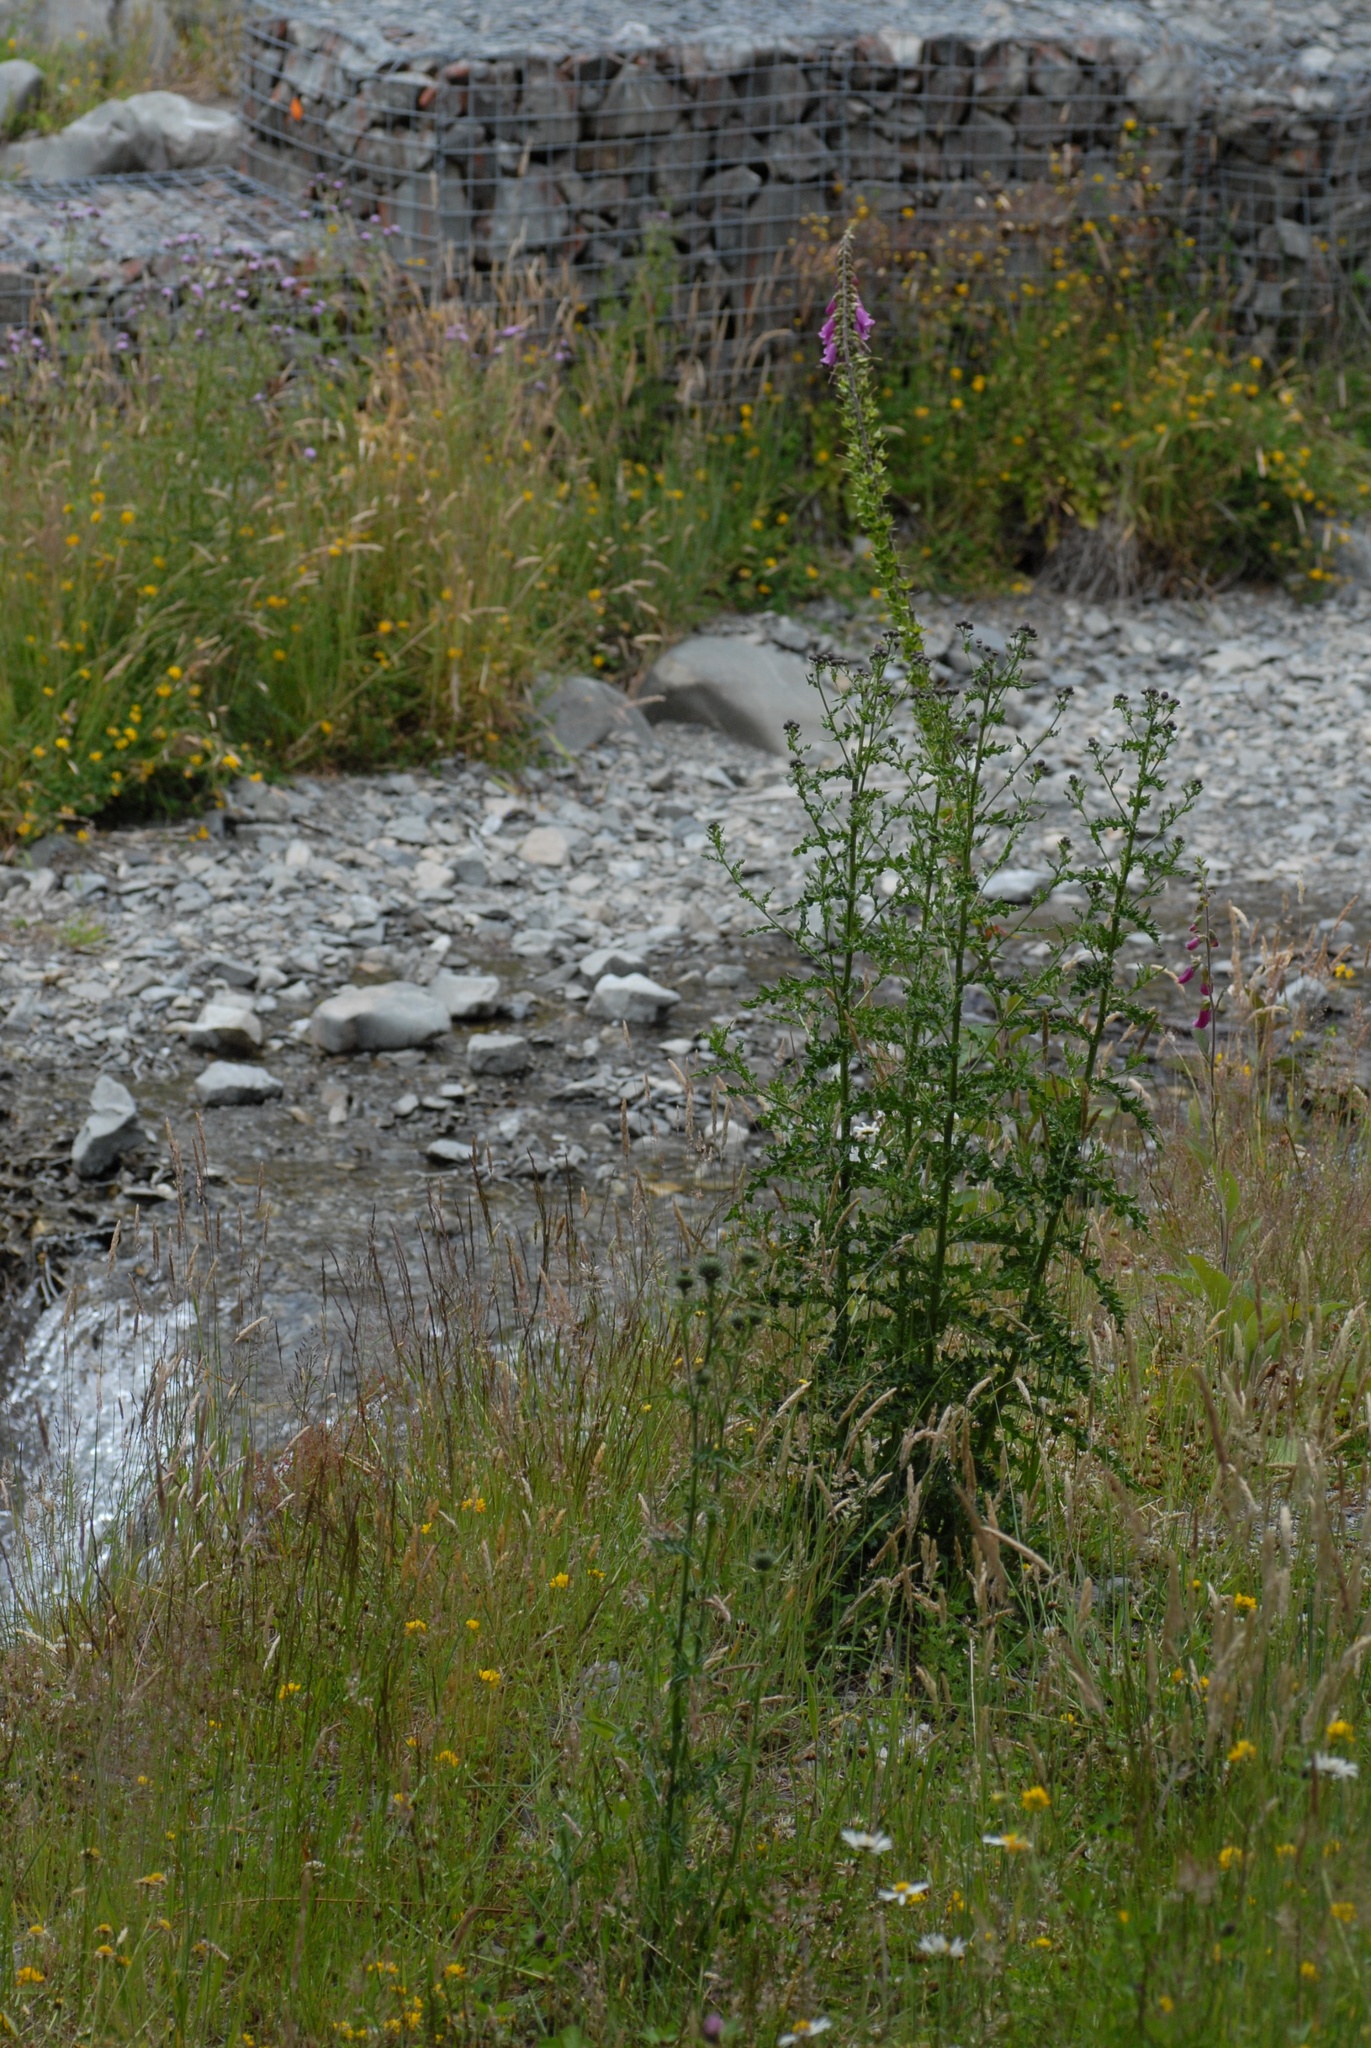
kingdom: Plantae
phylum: Tracheophyta
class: Magnoliopsida
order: Lamiales
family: Plantaginaceae
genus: Digitalis
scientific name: Digitalis purpurea
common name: Foxglove
